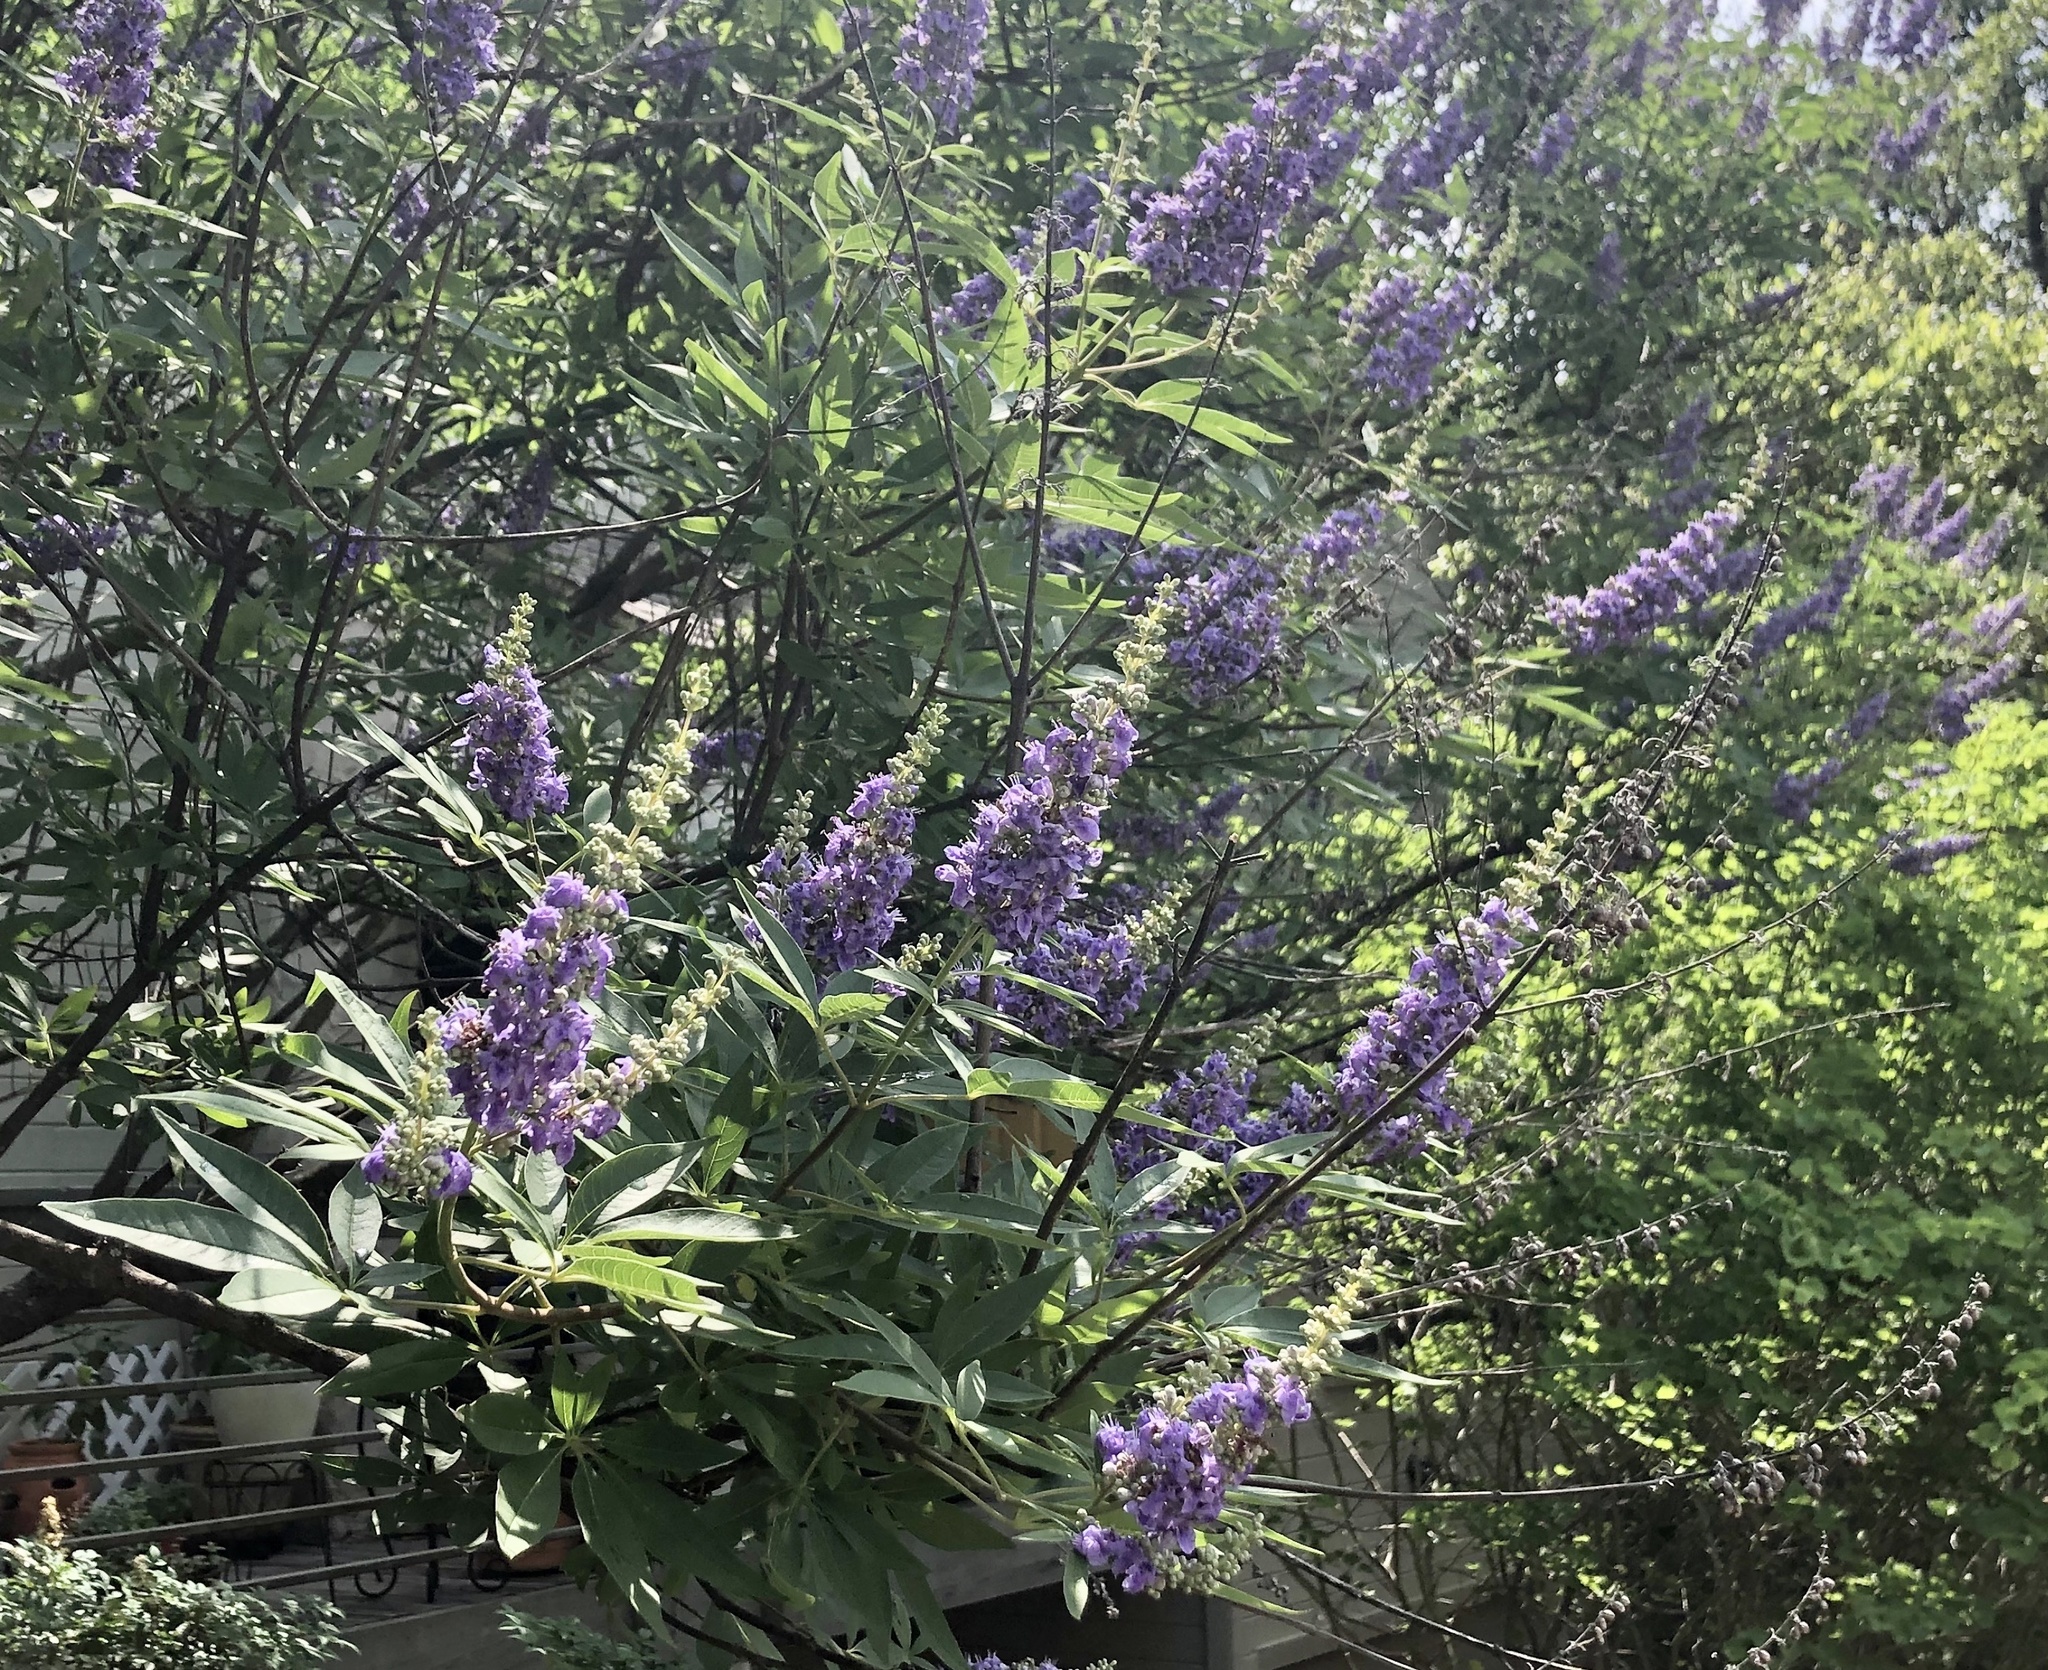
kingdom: Plantae
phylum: Tracheophyta
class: Magnoliopsida
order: Lamiales
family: Lamiaceae
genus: Vitex
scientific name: Vitex agnus-castus
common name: Chasteberry
